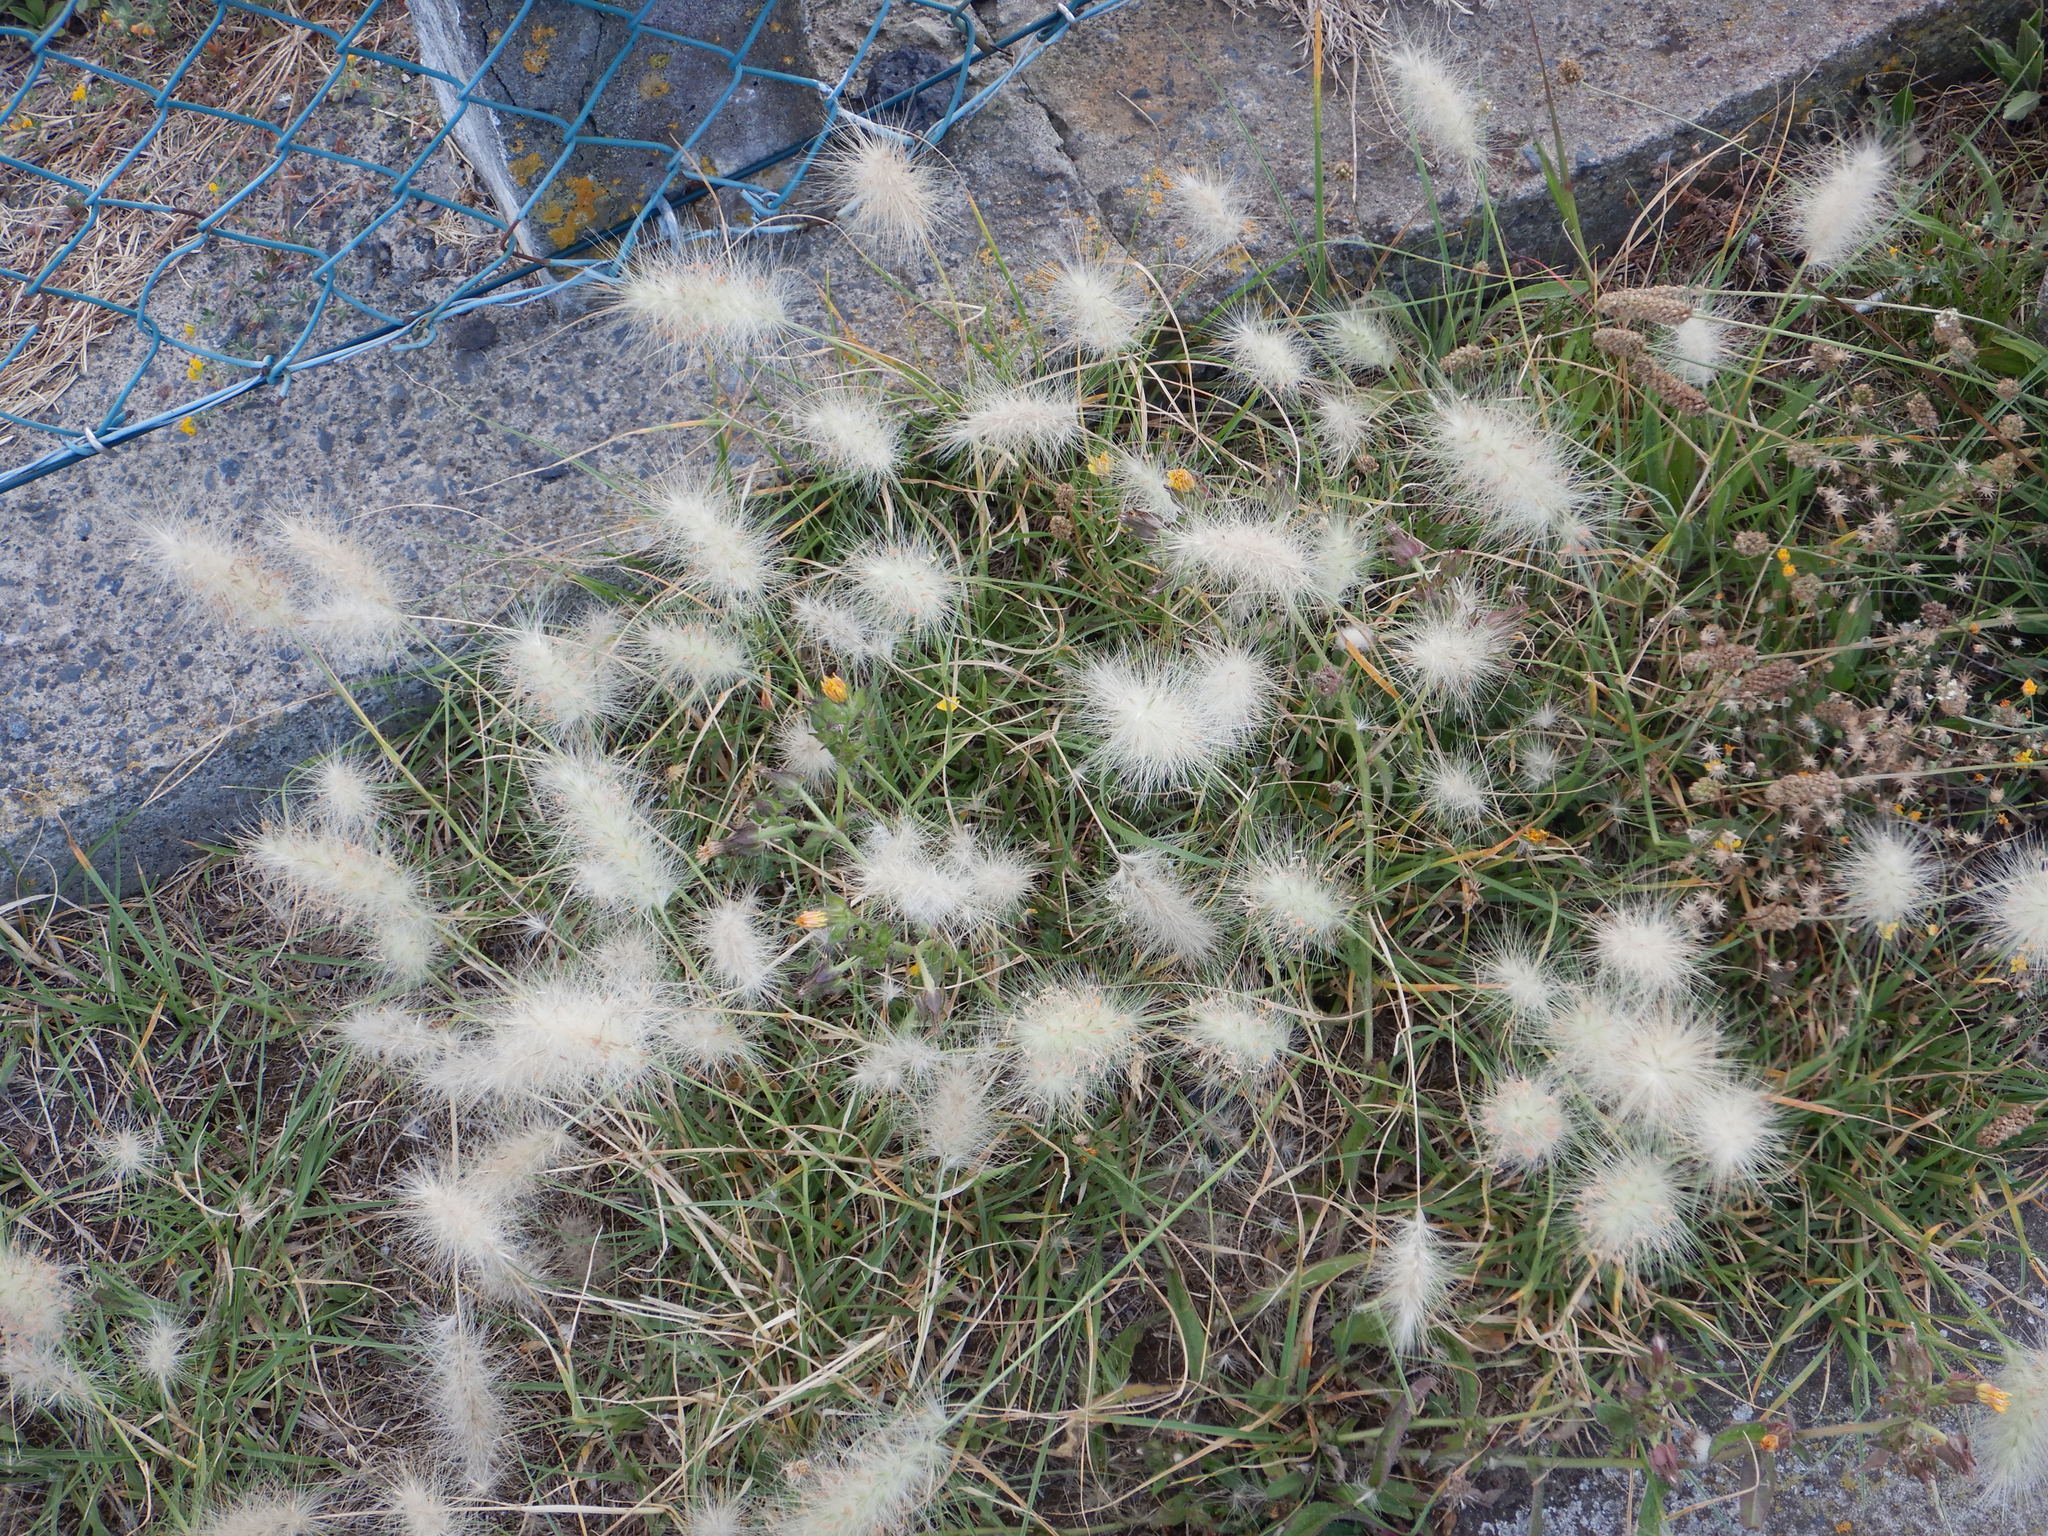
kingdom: Plantae
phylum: Tracheophyta
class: Liliopsida
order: Poales
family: Poaceae
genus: Cenchrus
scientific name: Cenchrus longisetus
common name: Feathertop
